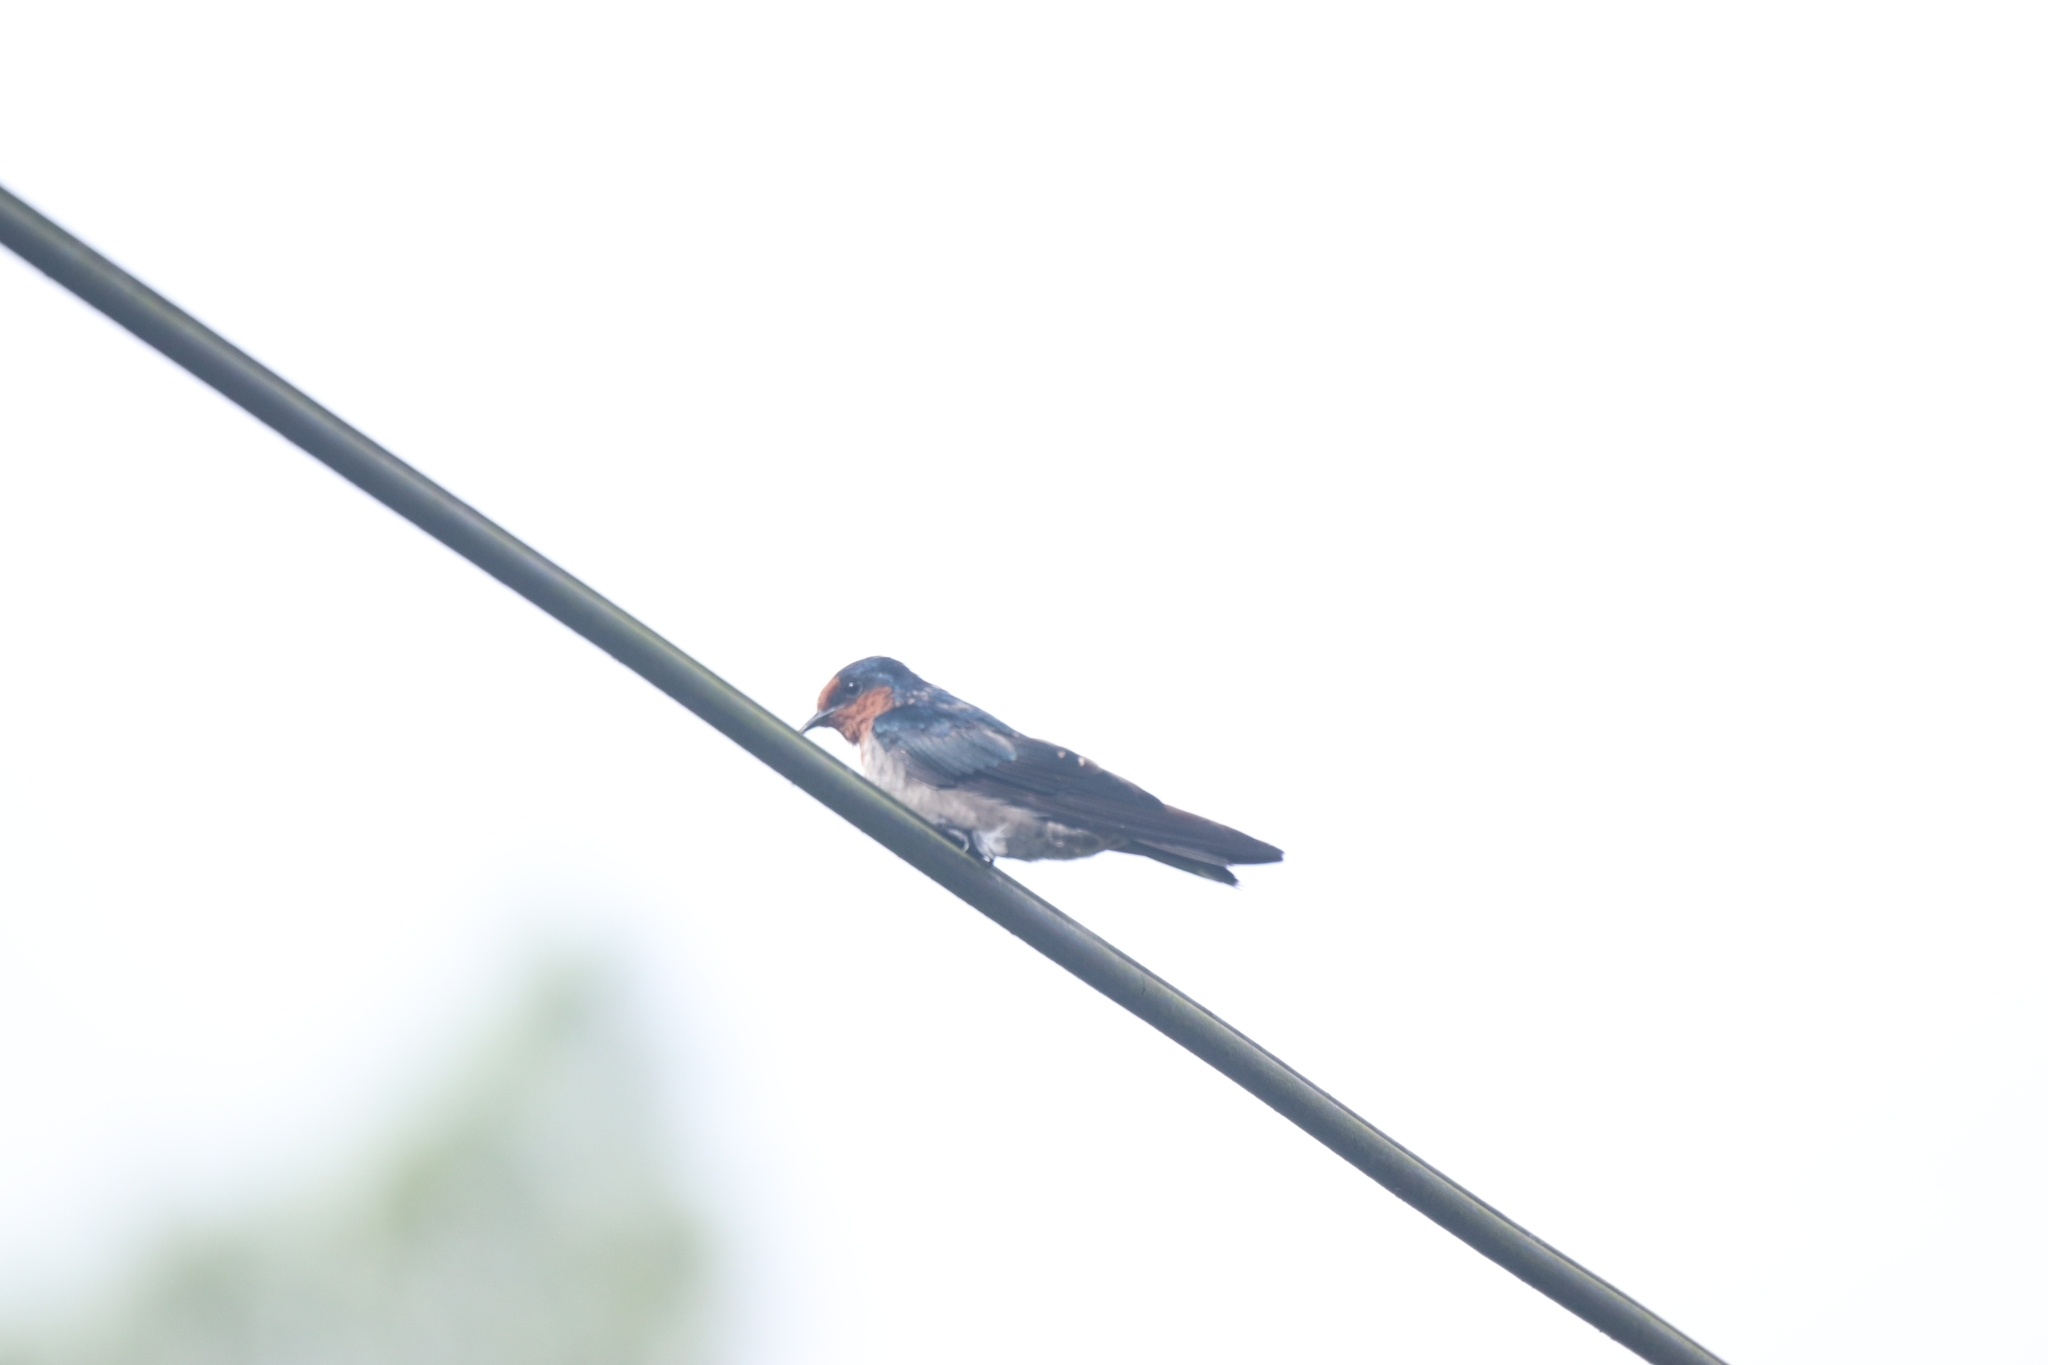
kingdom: Animalia
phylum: Chordata
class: Aves
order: Passeriformes
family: Hirundinidae
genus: Hirundo
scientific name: Hirundo tahitica
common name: Pacific swallow
